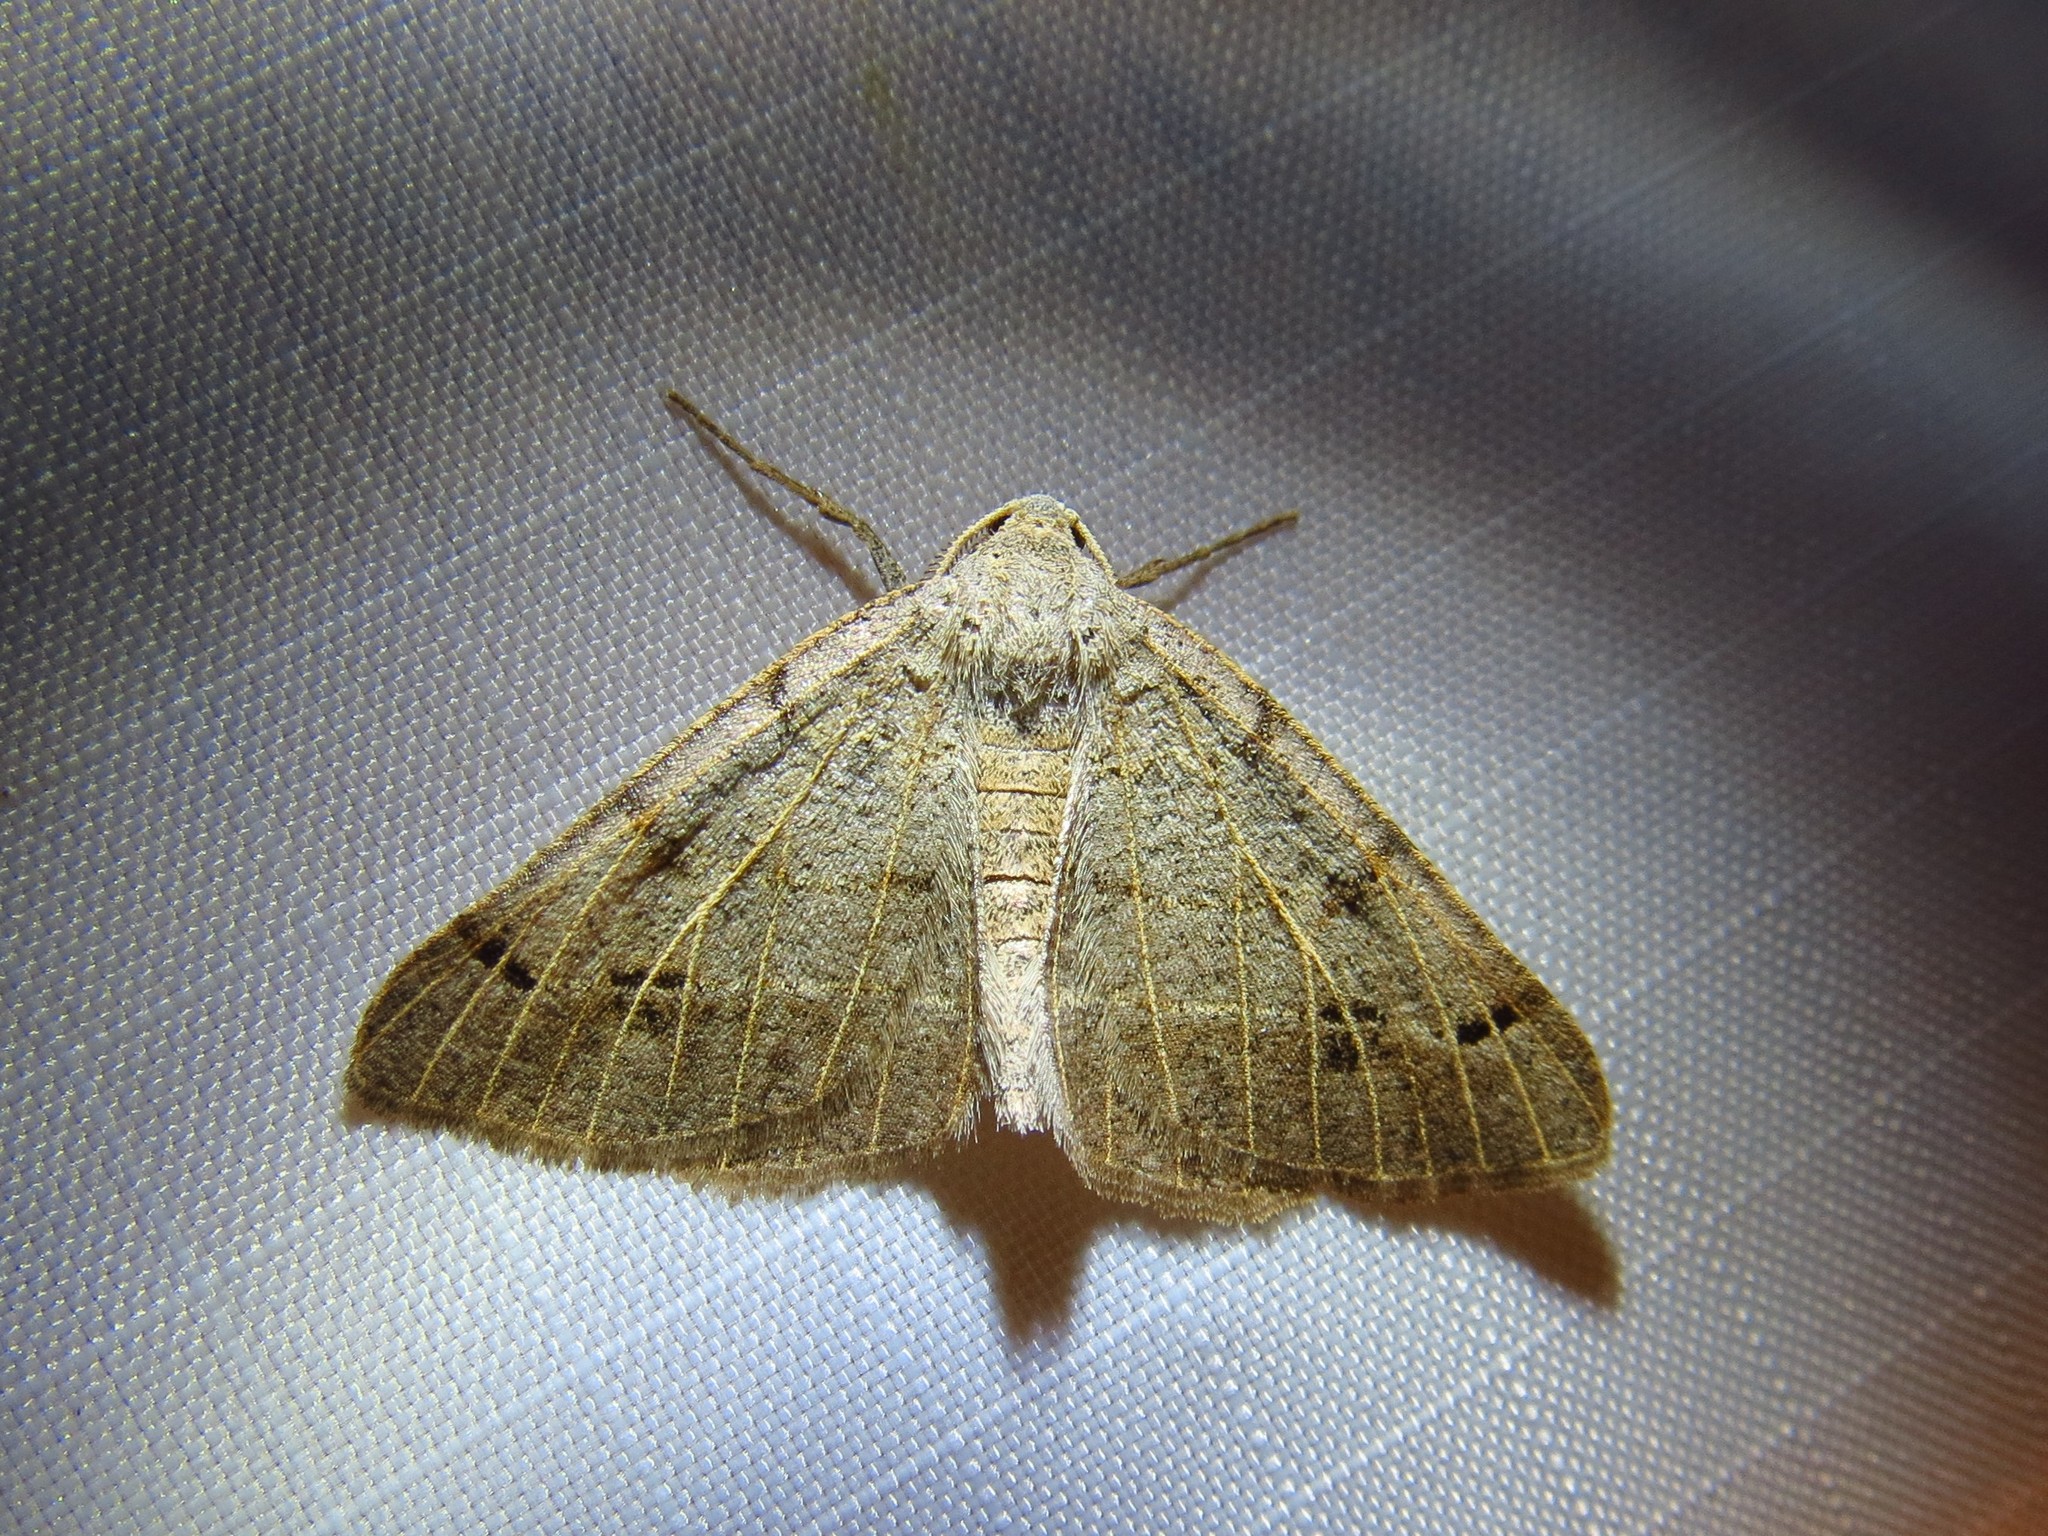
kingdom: Animalia
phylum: Arthropoda
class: Insecta
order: Lepidoptera
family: Geometridae
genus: Isturgia
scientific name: Isturgia dislocaria
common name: Pale-viened enconista
